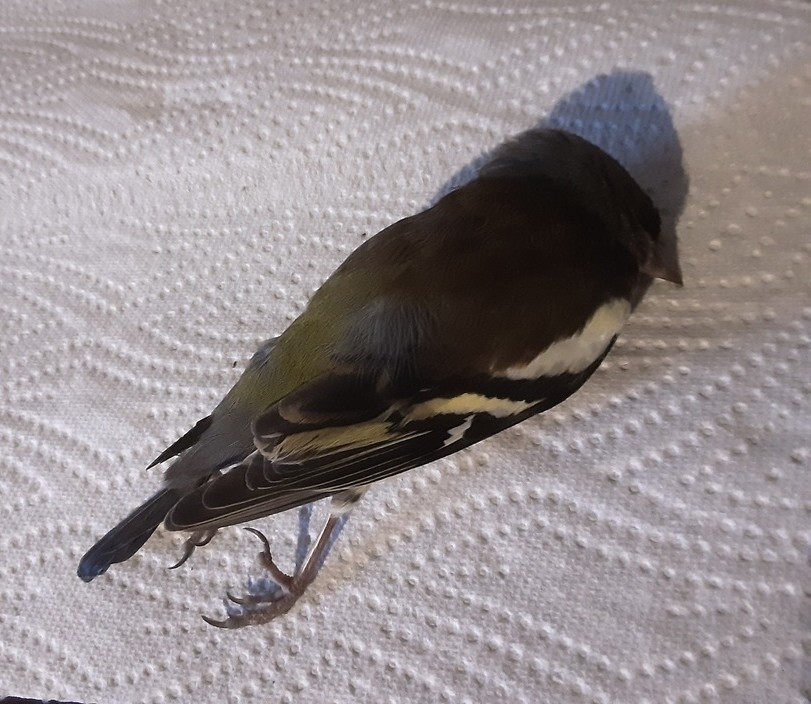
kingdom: Animalia
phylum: Chordata
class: Aves
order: Passeriformes
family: Fringillidae
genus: Fringilla
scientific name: Fringilla coelebs
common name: Common chaffinch
